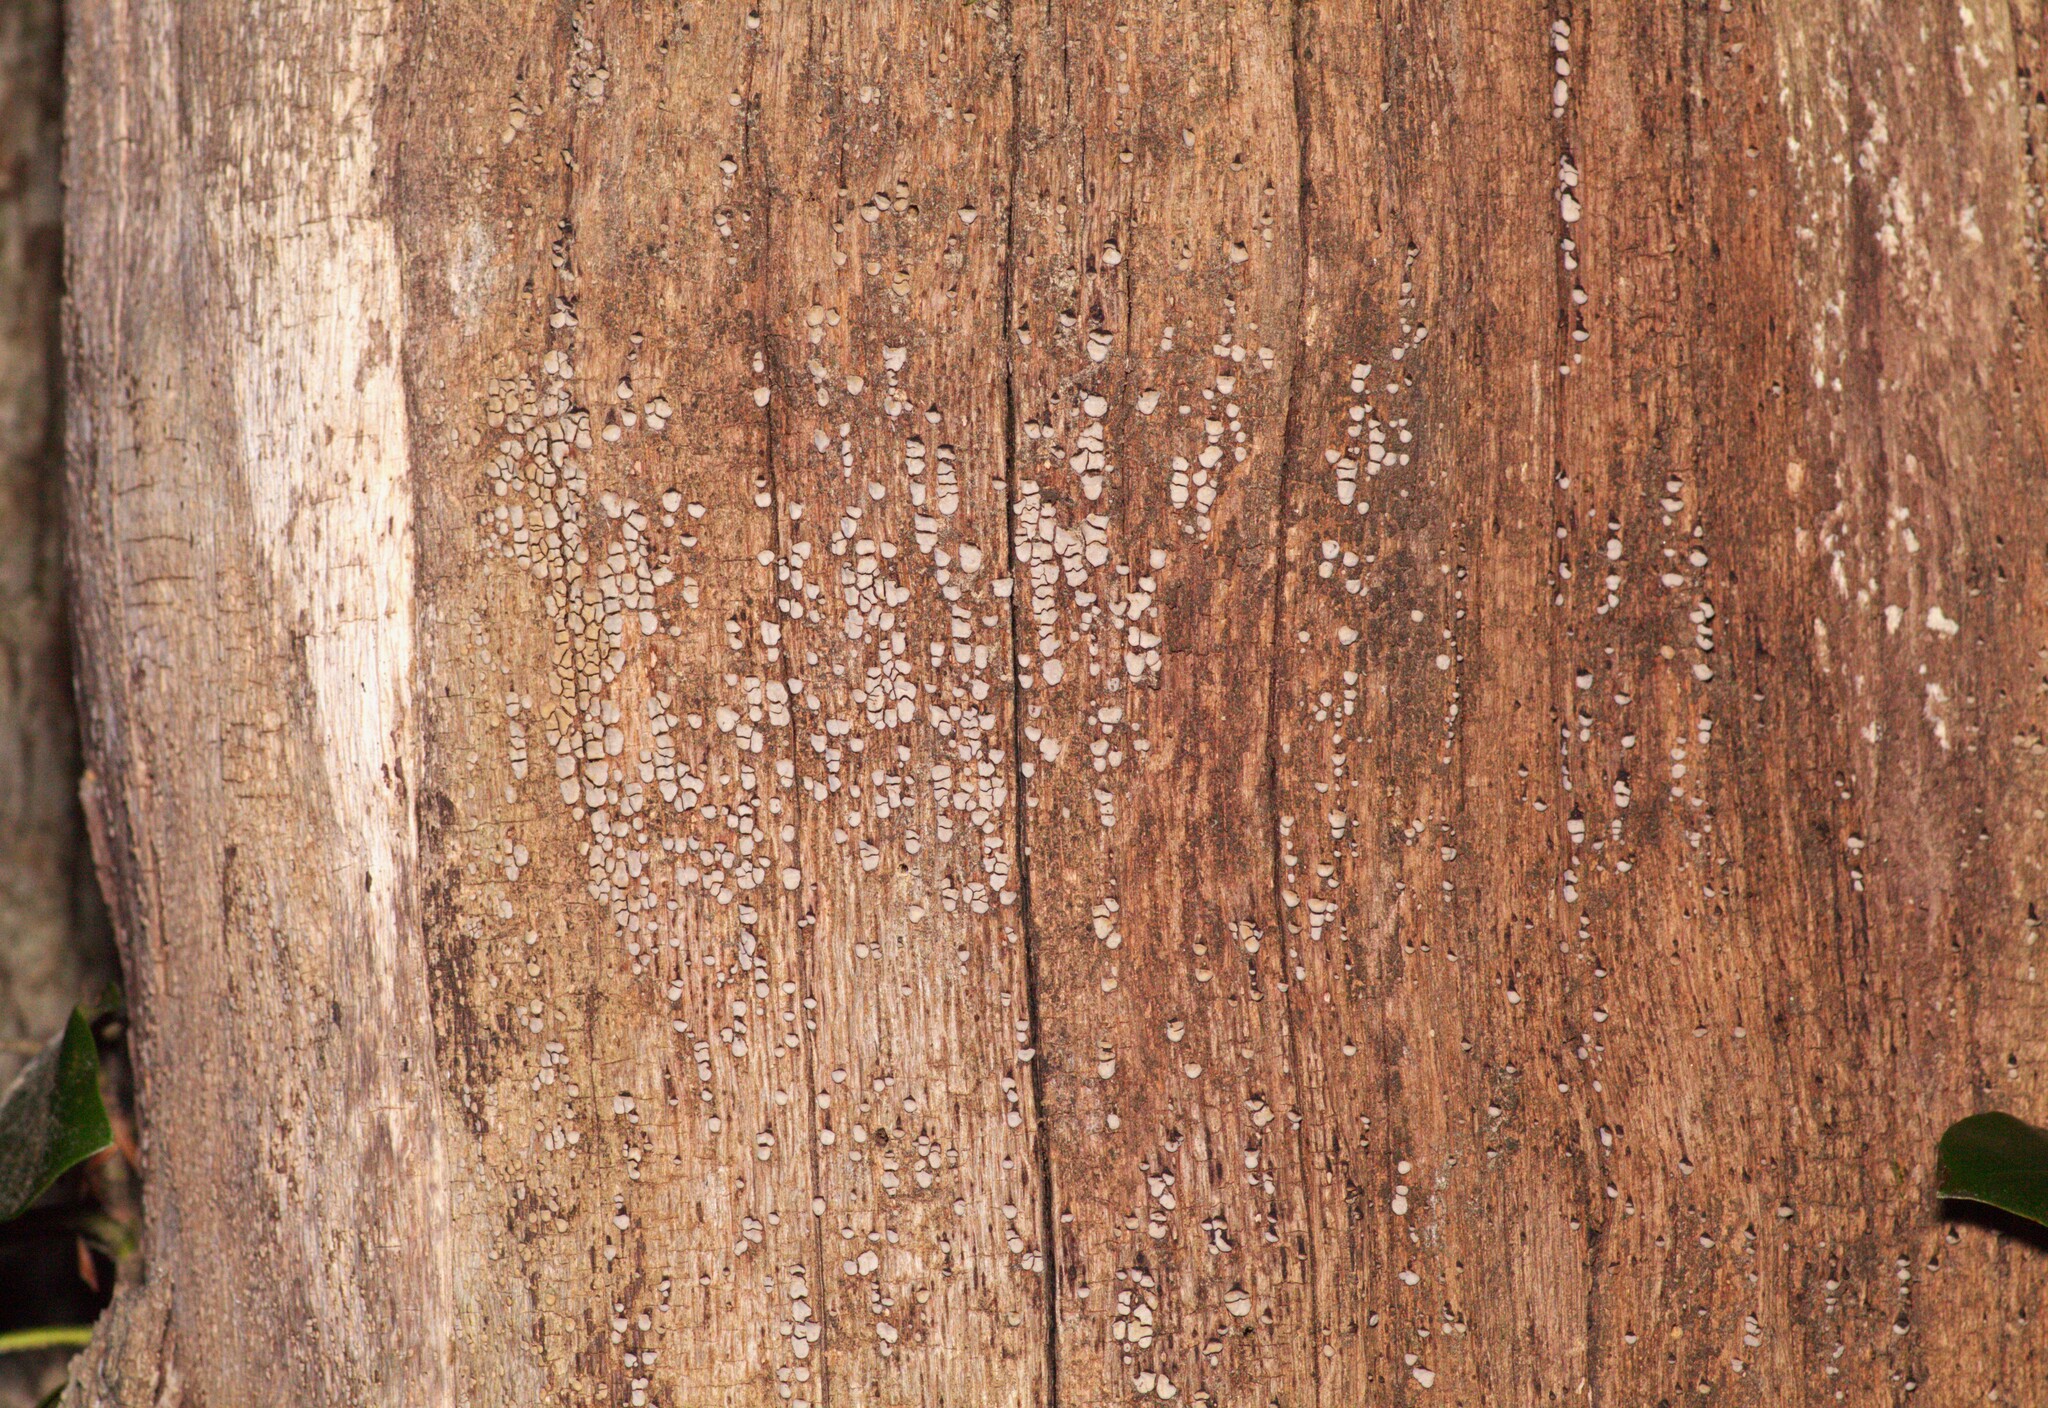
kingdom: Fungi
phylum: Basidiomycota
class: Agaricomycetes
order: Russulales
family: Stereaceae
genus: Xylobolus
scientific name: Xylobolus frustulatus
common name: Ceramic parchment
